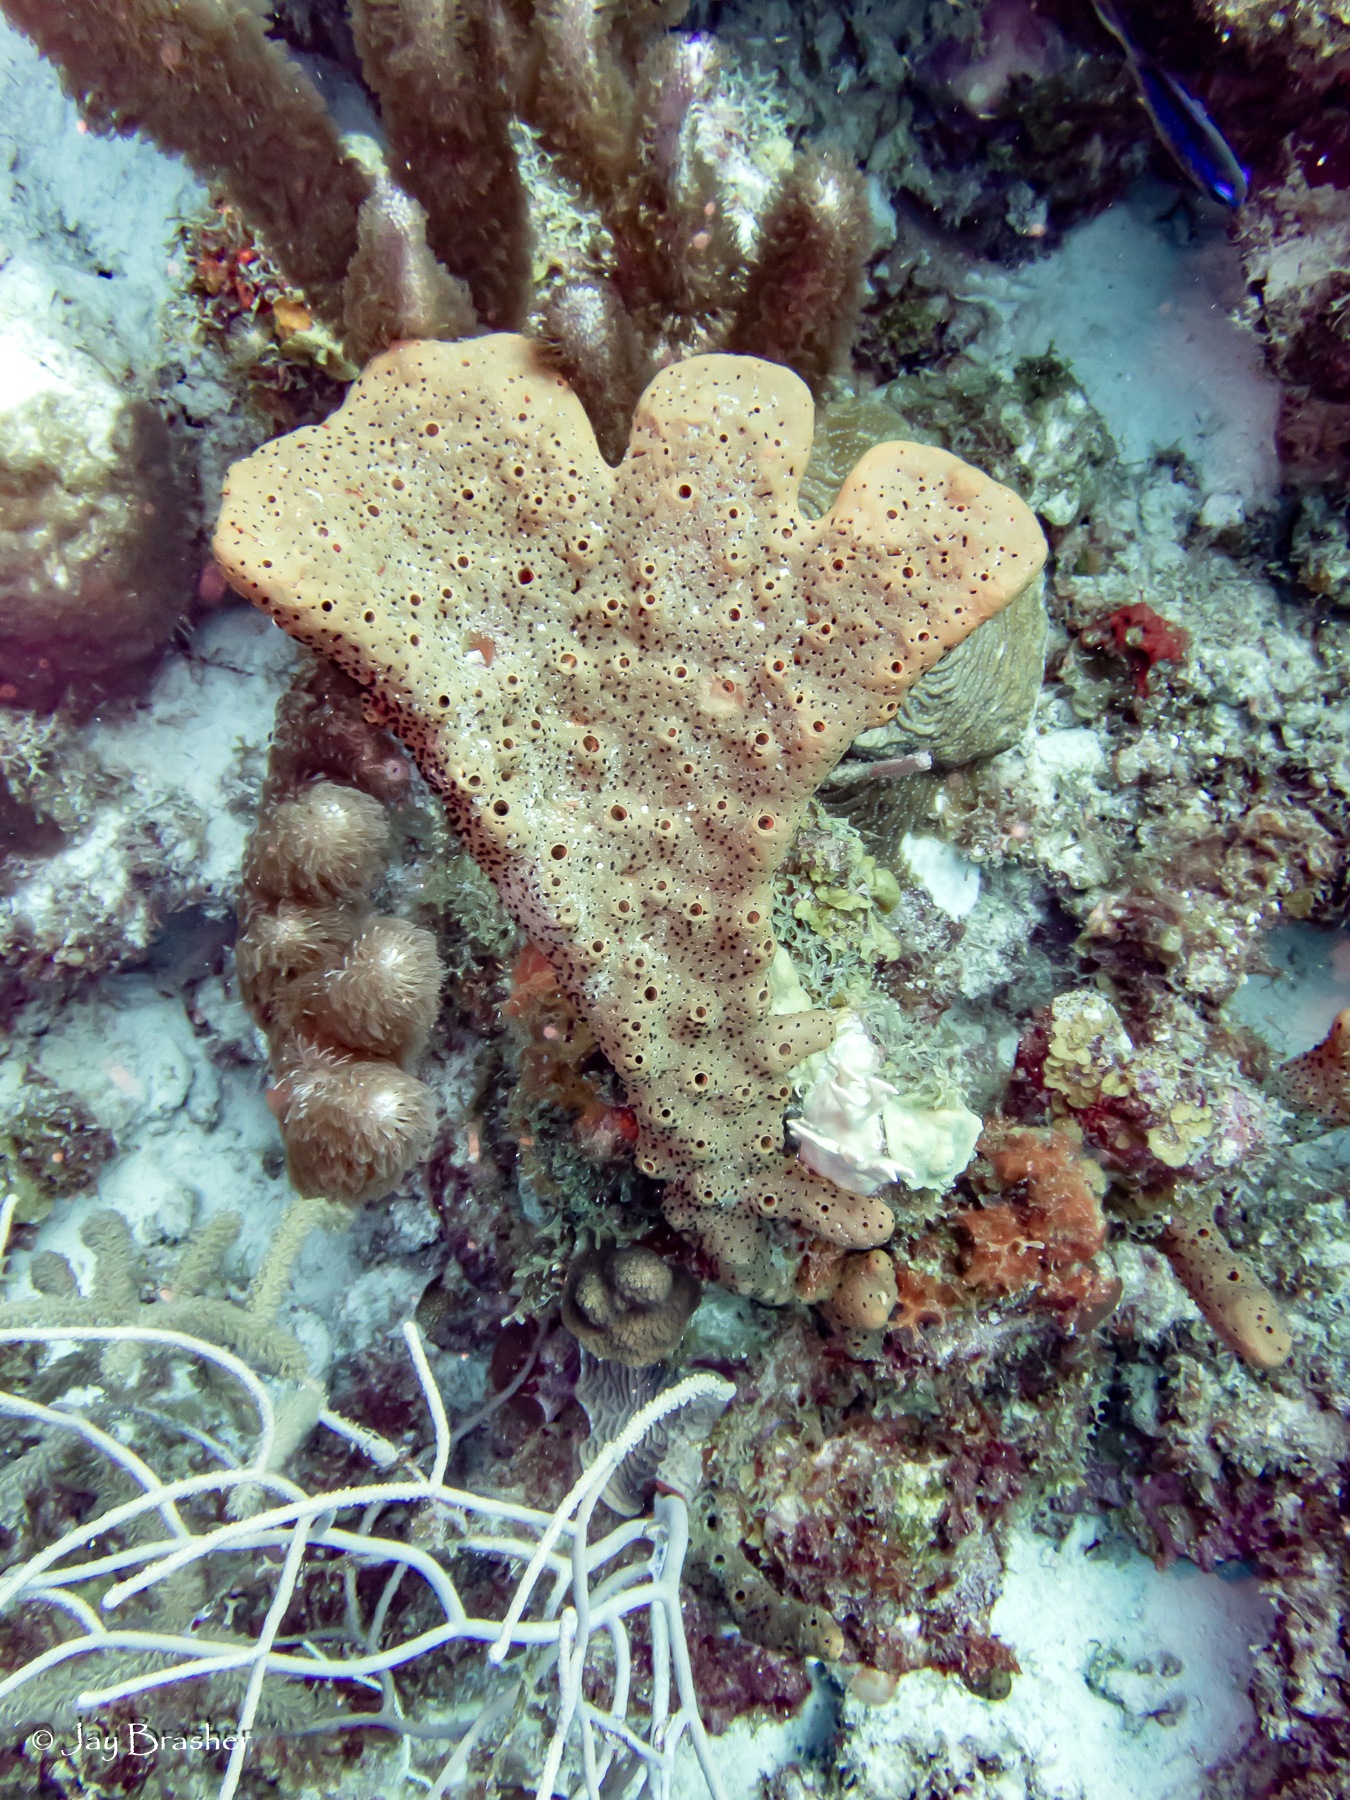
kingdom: Animalia
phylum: Porifera
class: Demospongiae
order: Agelasida
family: Agelasidae
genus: Agelas
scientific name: Agelas conifera
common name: Brown tube sponge
